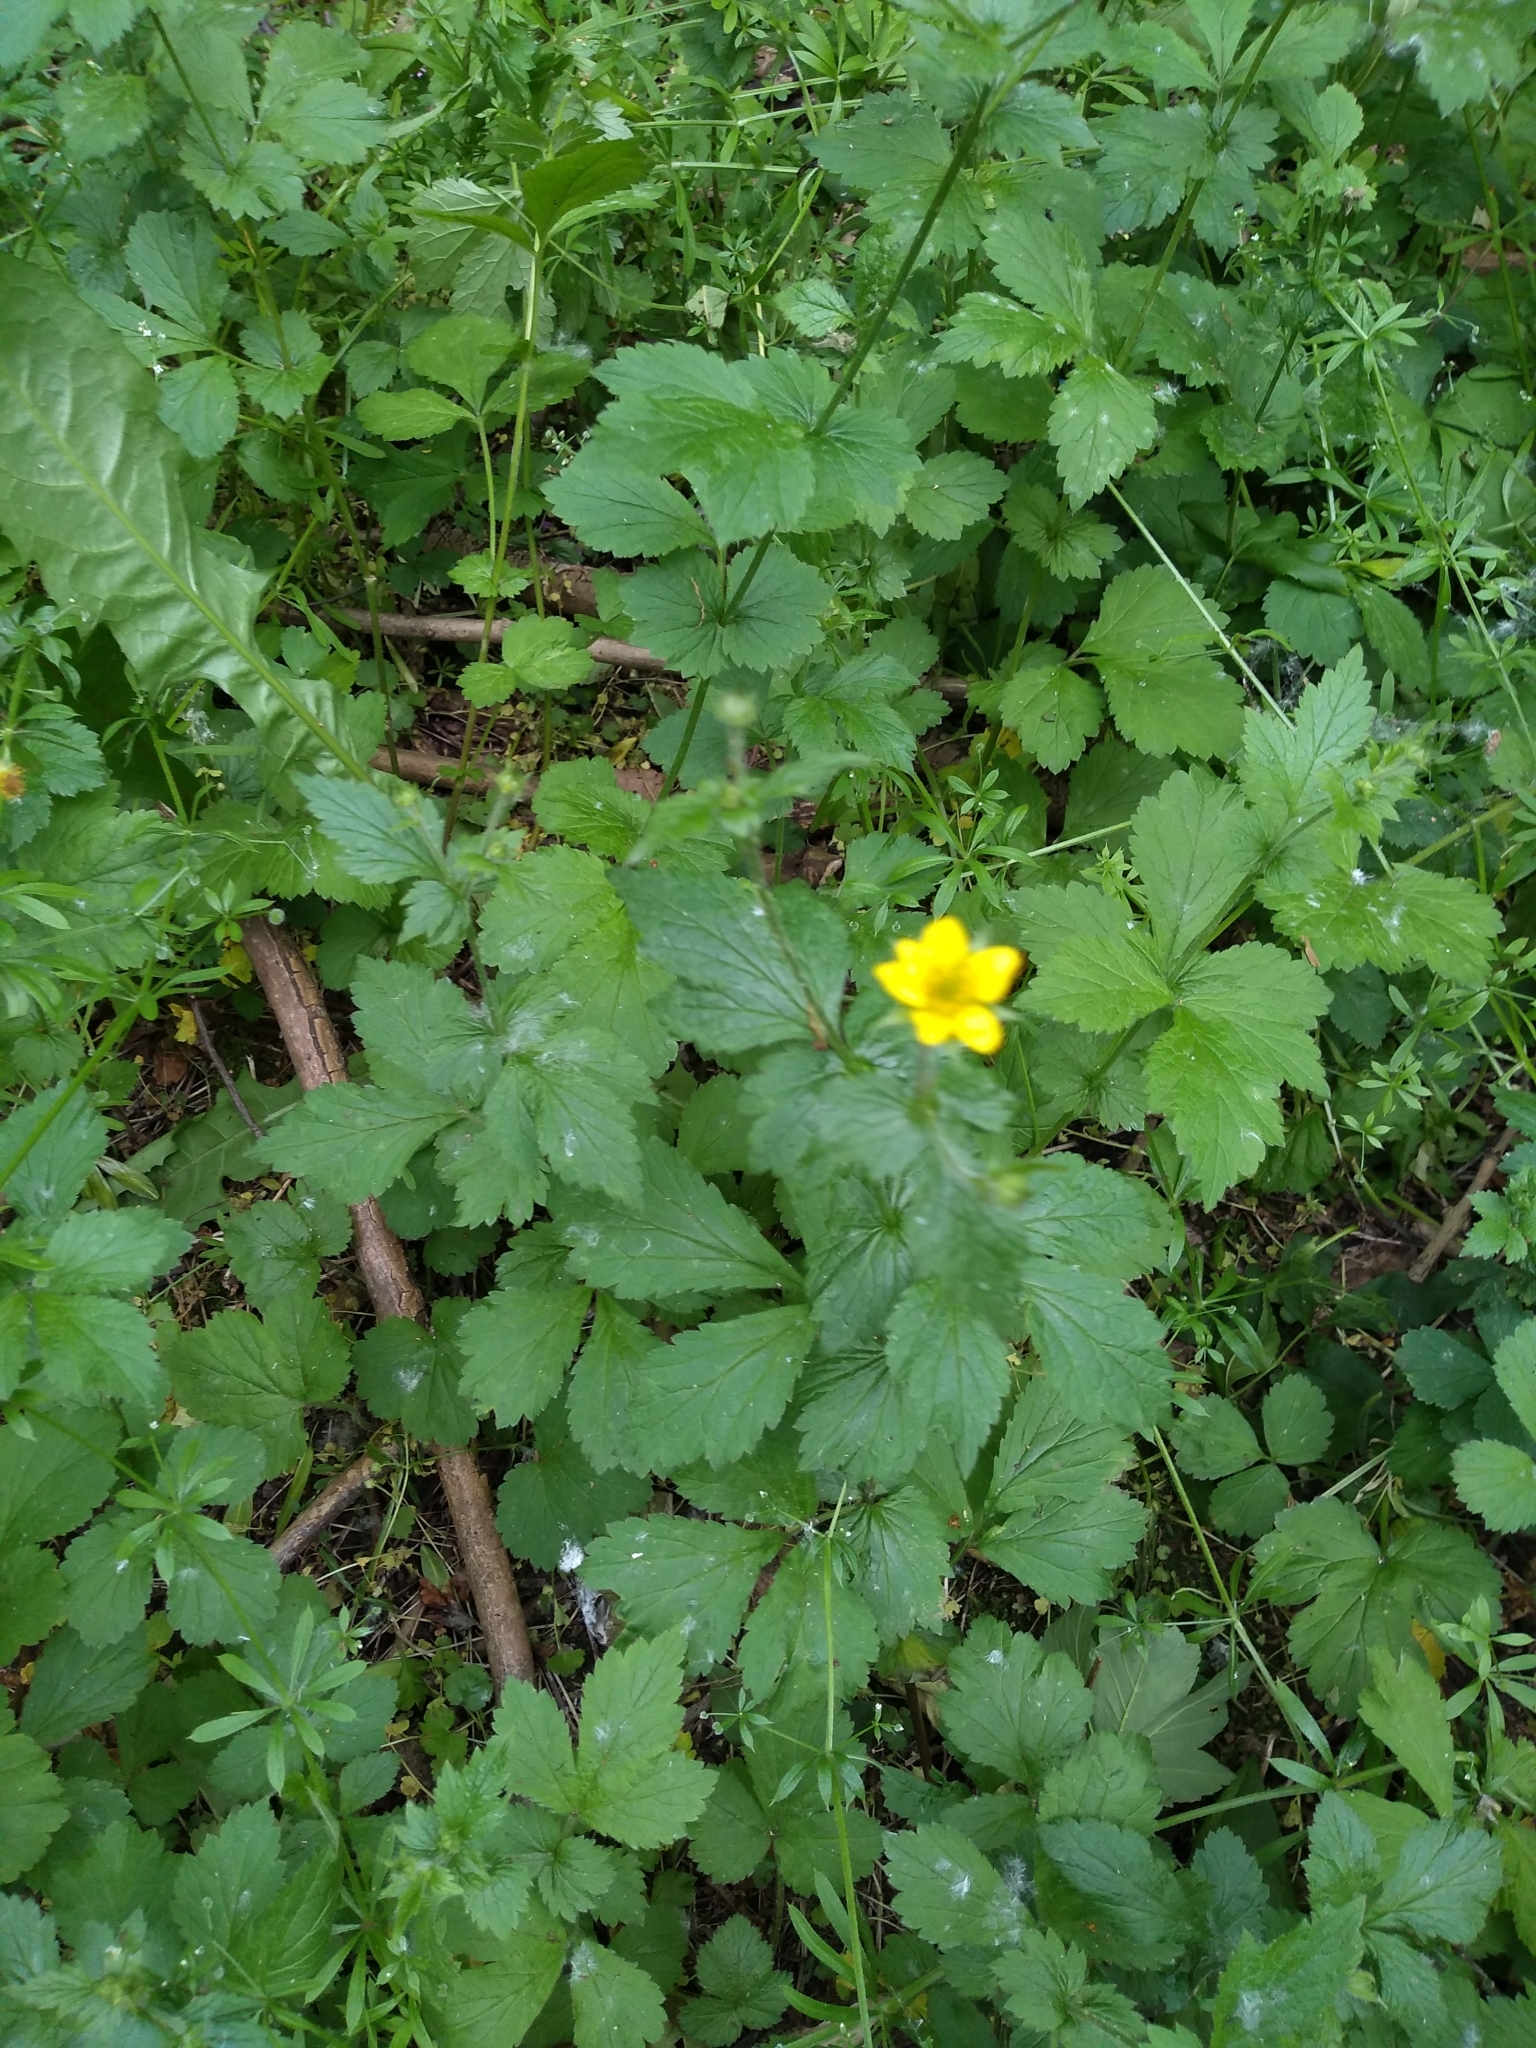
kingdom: Plantae
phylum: Tracheophyta
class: Magnoliopsida
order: Rosales
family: Rosaceae
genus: Geum
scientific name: Geum urbanum
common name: Wood avens
